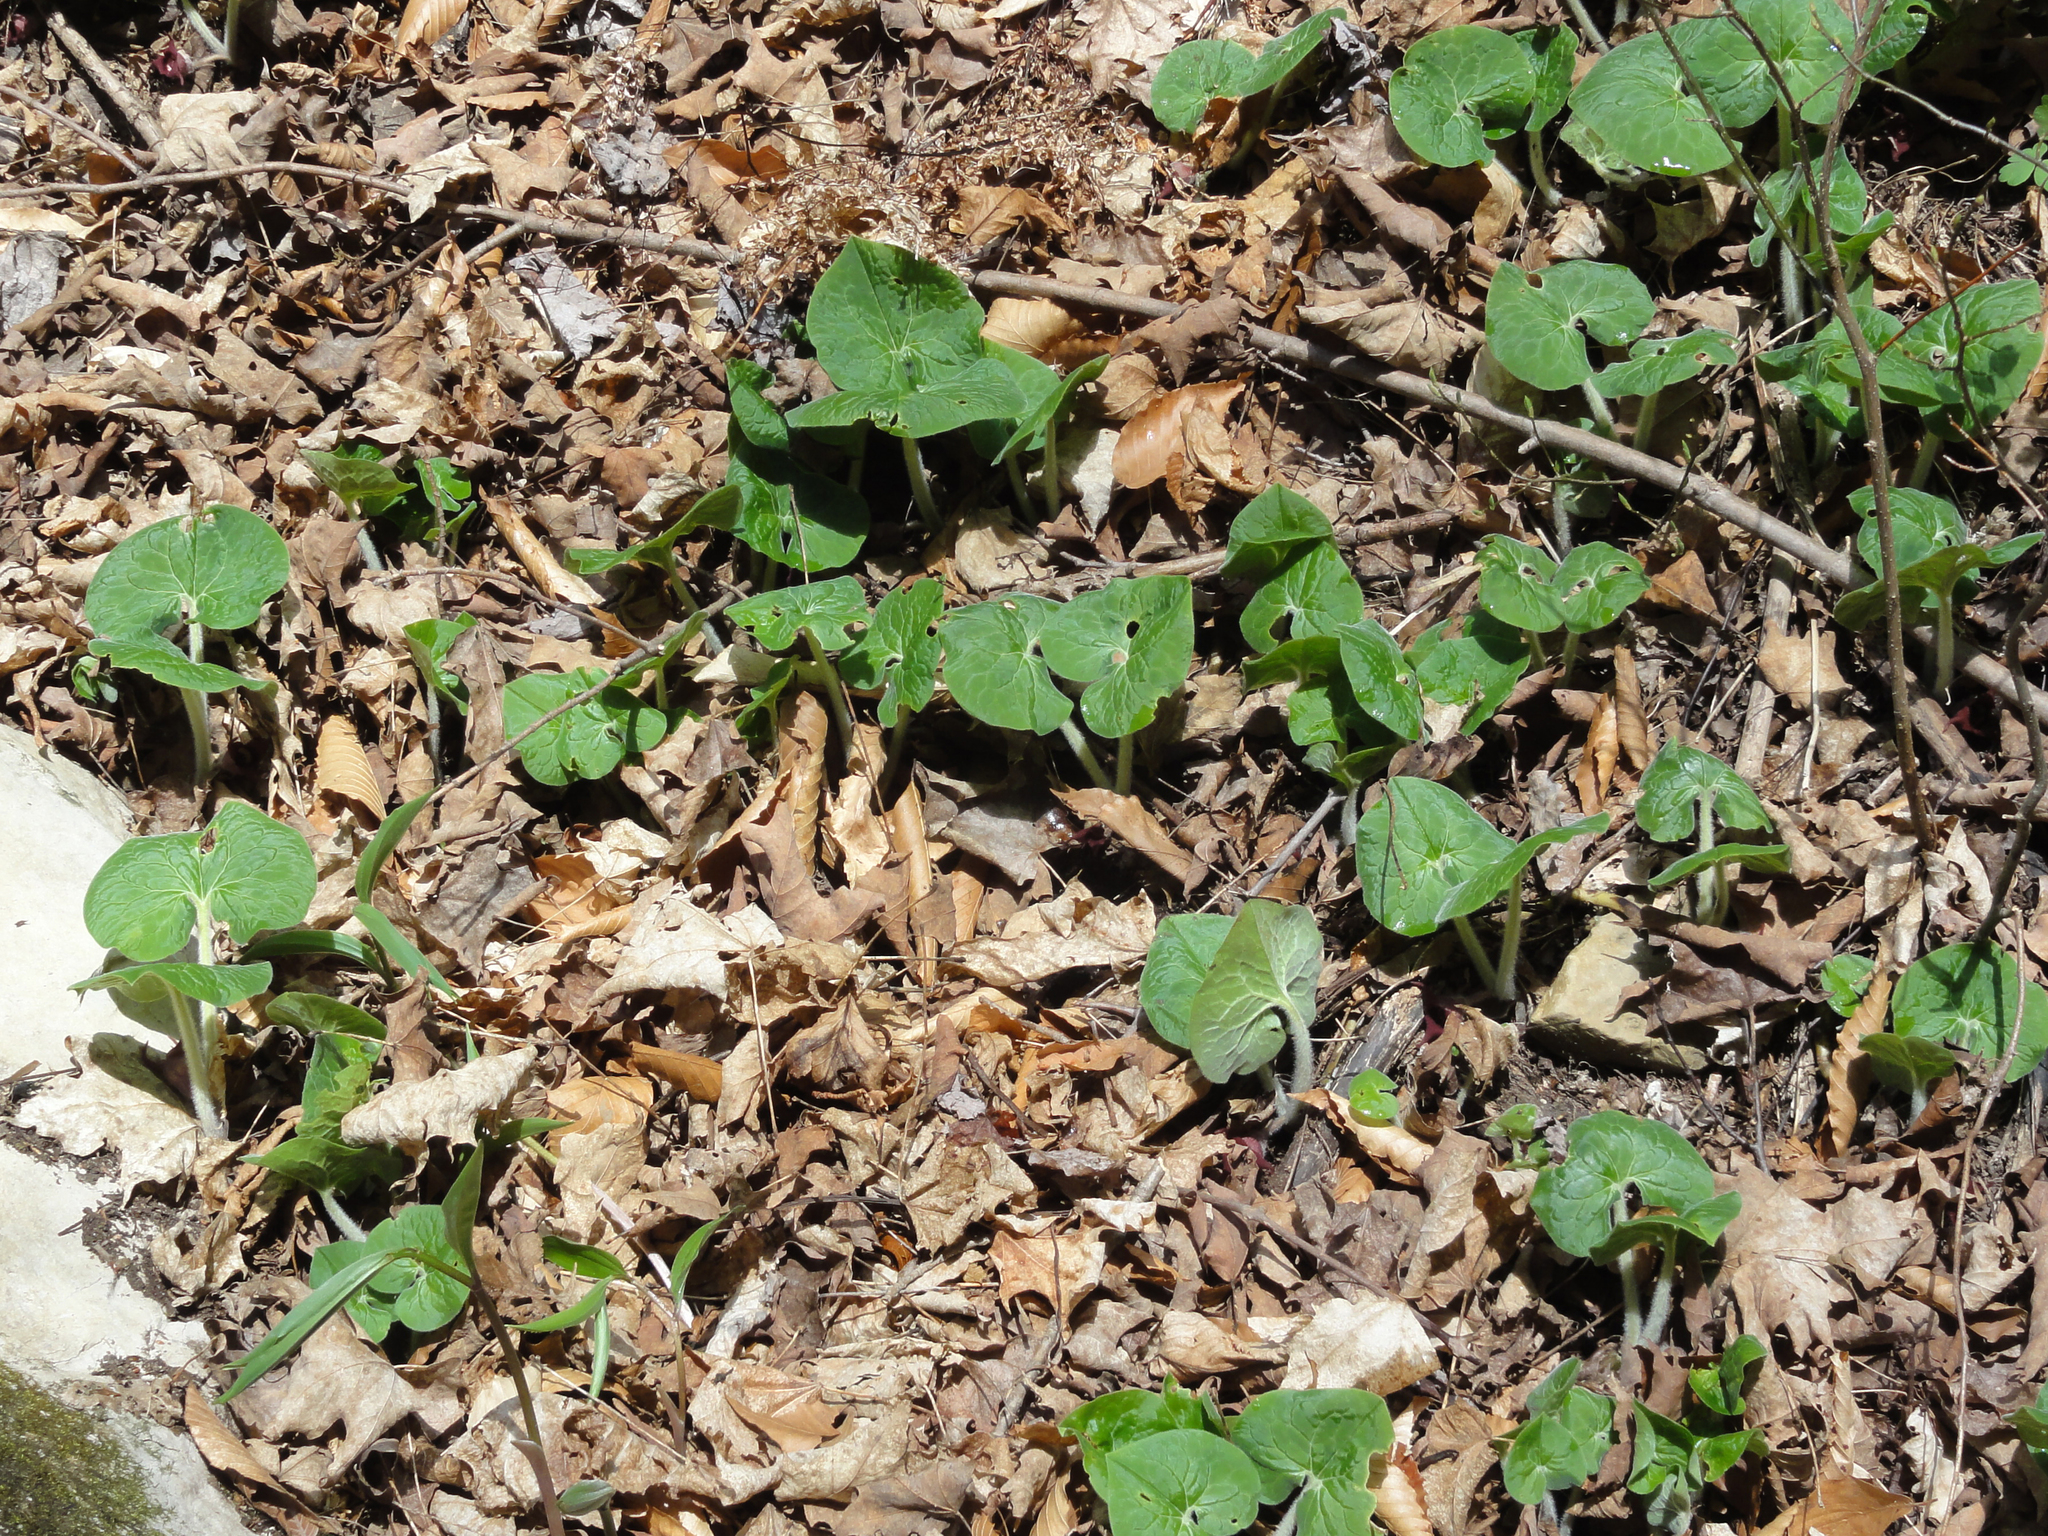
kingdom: Plantae
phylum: Tracheophyta
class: Magnoliopsida
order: Piperales
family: Aristolochiaceae
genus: Asarum
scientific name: Asarum canadense
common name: Wild ginger
